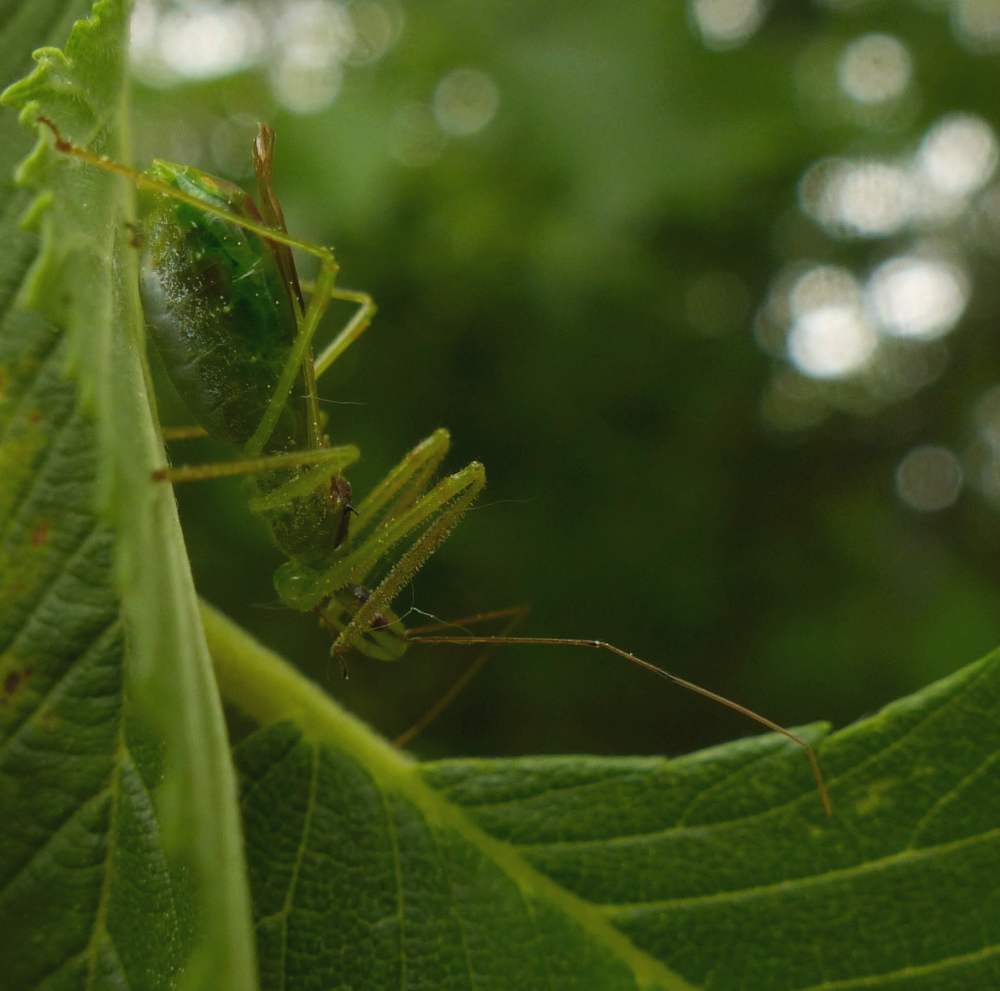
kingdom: Animalia
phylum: Arthropoda
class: Insecta
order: Hemiptera
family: Reduviidae
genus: Zelus
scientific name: Zelus luridus
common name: Pale green assassin bug
